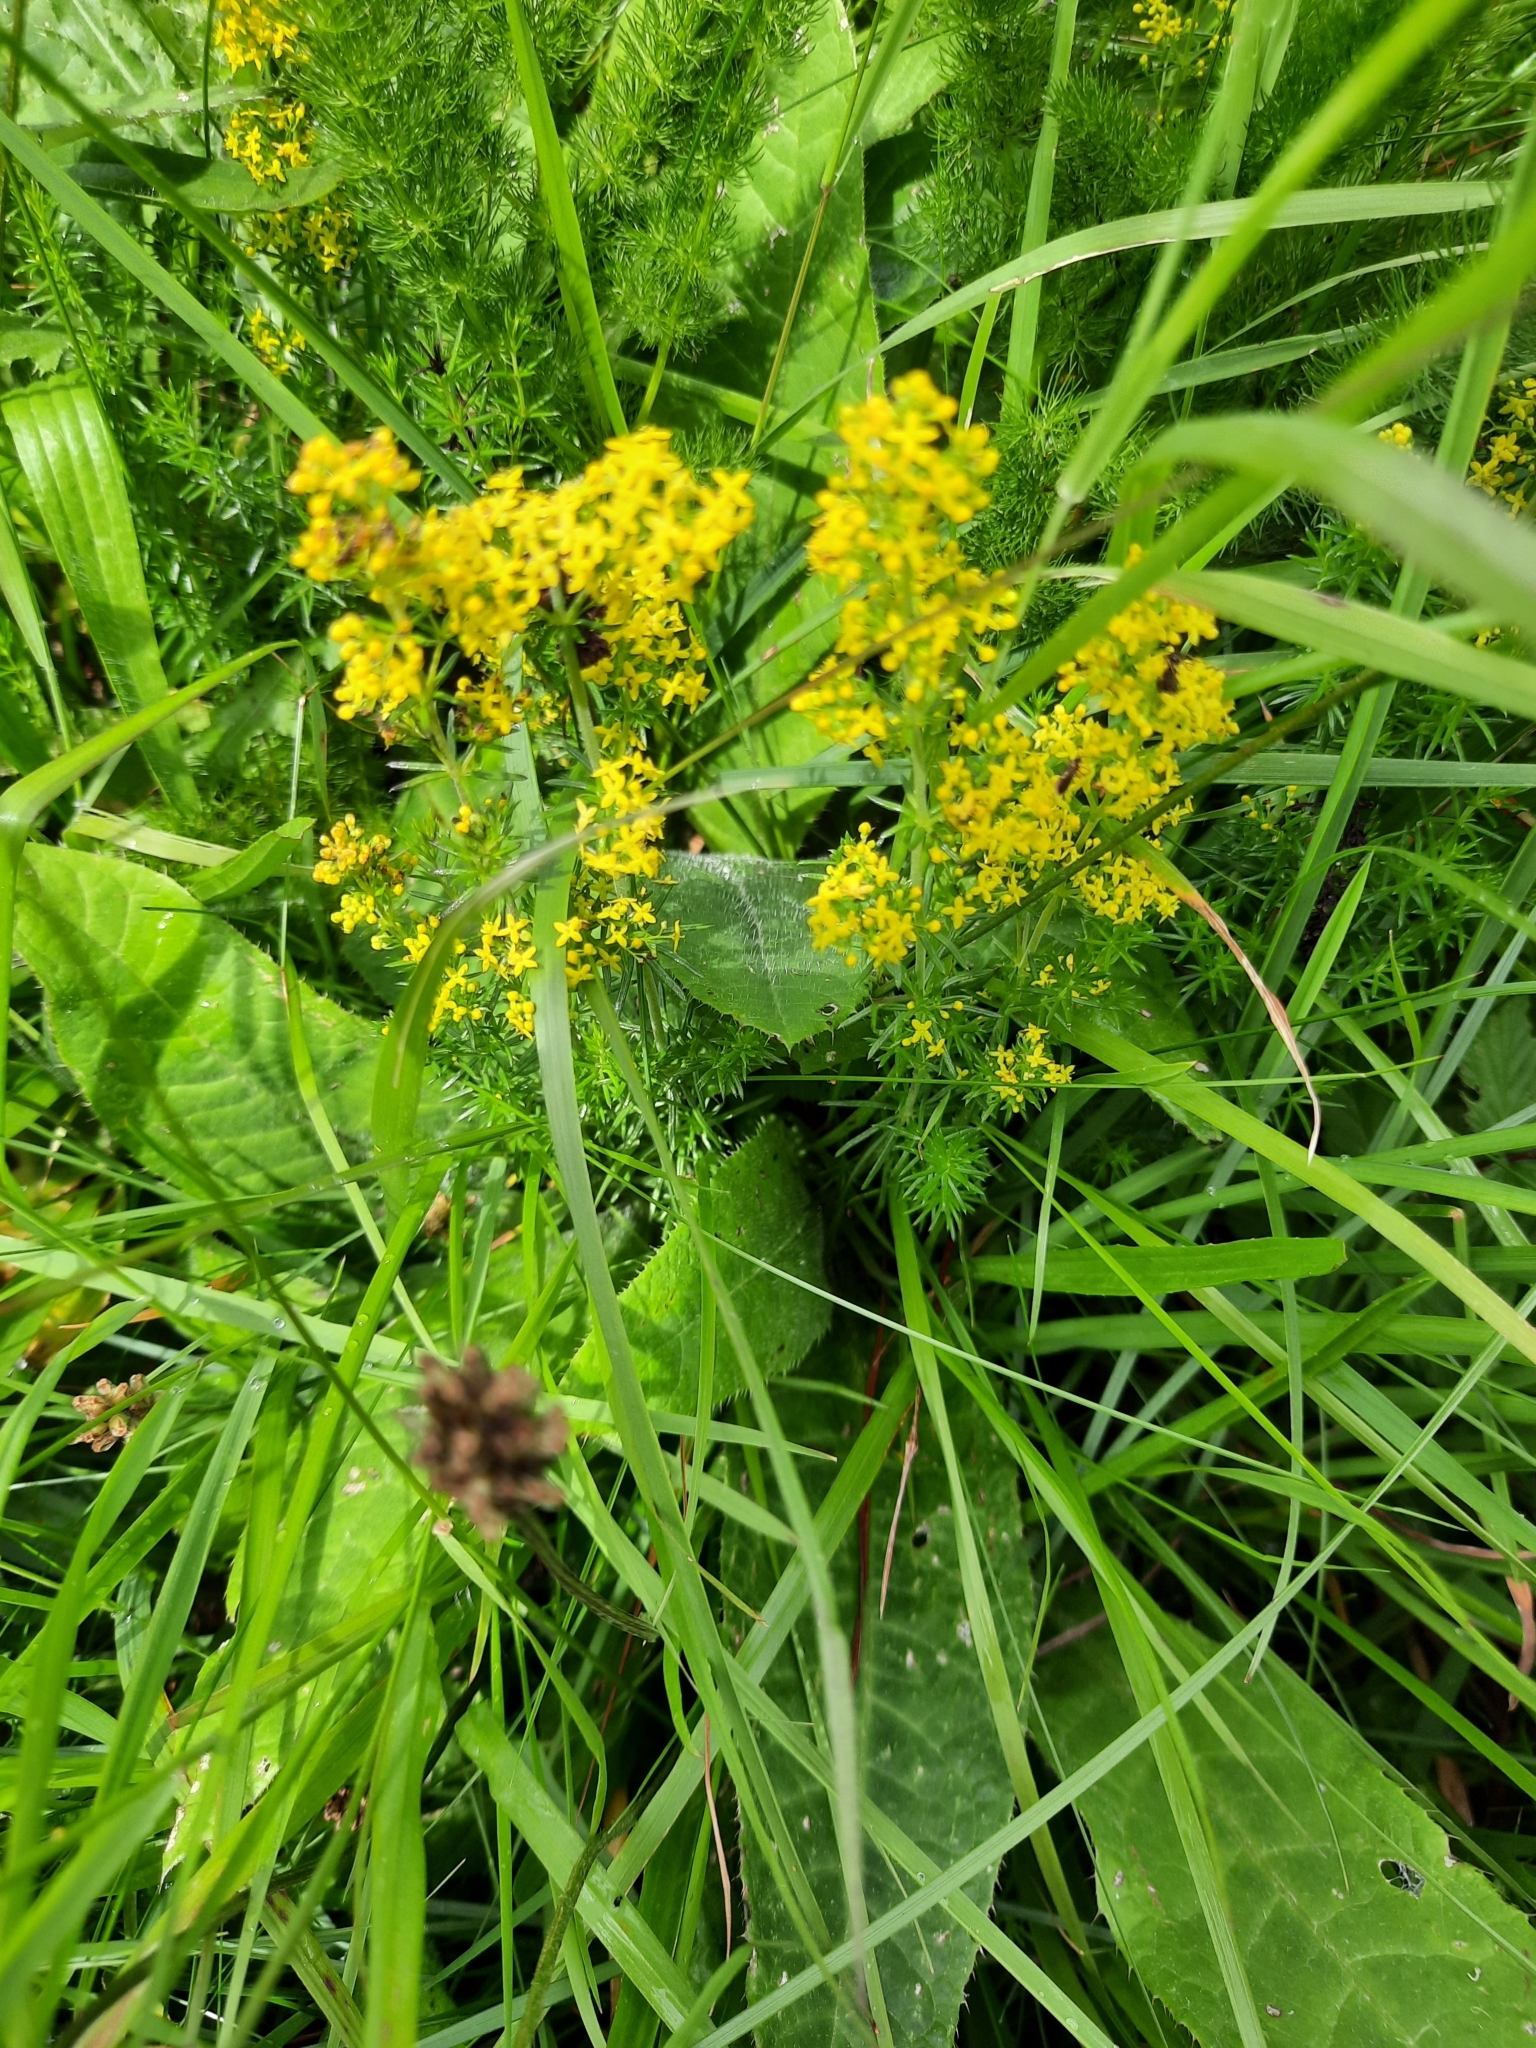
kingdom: Plantae
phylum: Tracheophyta
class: Magnoliopsida
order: Gentianales
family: Rubiaceae
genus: Galium
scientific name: Galium verum
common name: Lady's bedstraw
